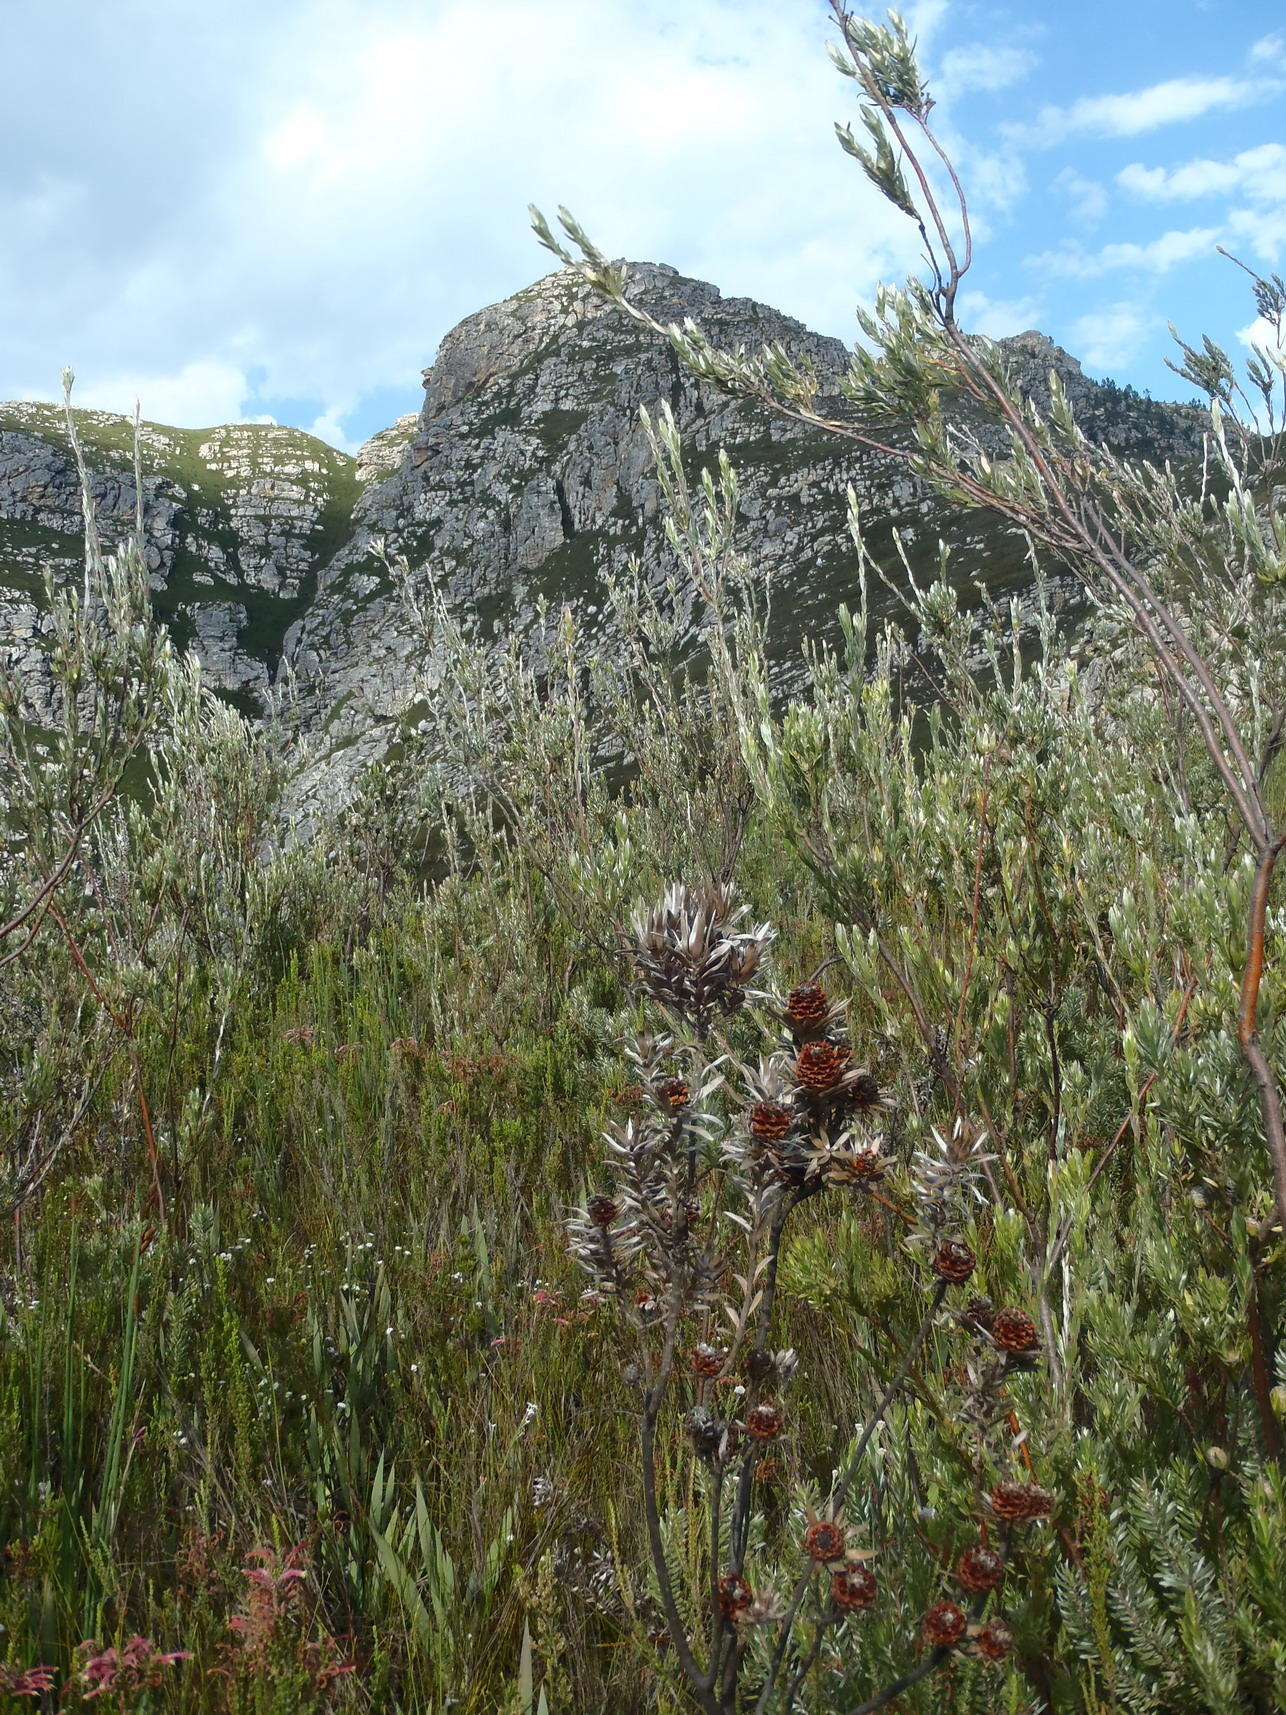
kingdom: Plantae
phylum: Tracheophyta
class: Magnoliopsida
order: Proteales
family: Proteaceae
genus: Leucadendron
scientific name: Leucadendron uliginosum
